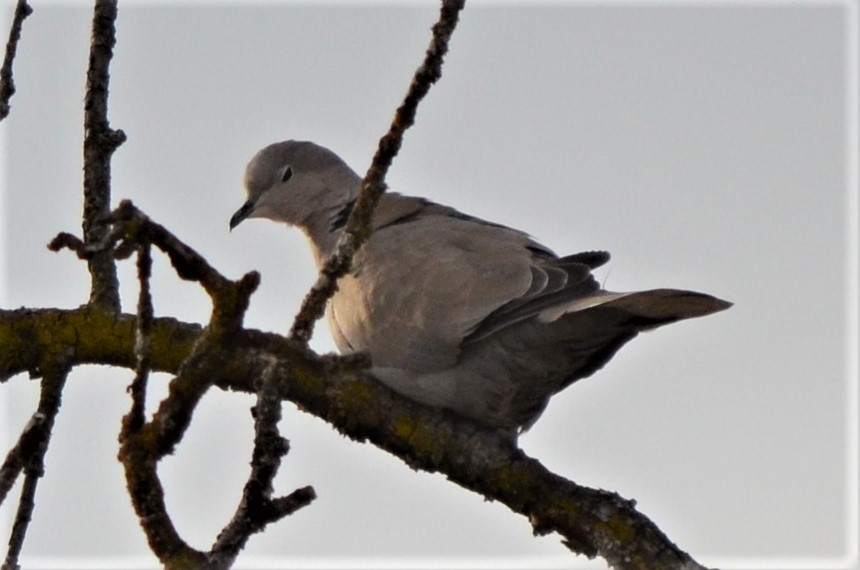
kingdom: Animalia
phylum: Chordata
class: Aves
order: Columbiformes
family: Columbidae
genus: Streptopelia
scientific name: Streptopelia decaocto
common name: Eurasian collared dove
